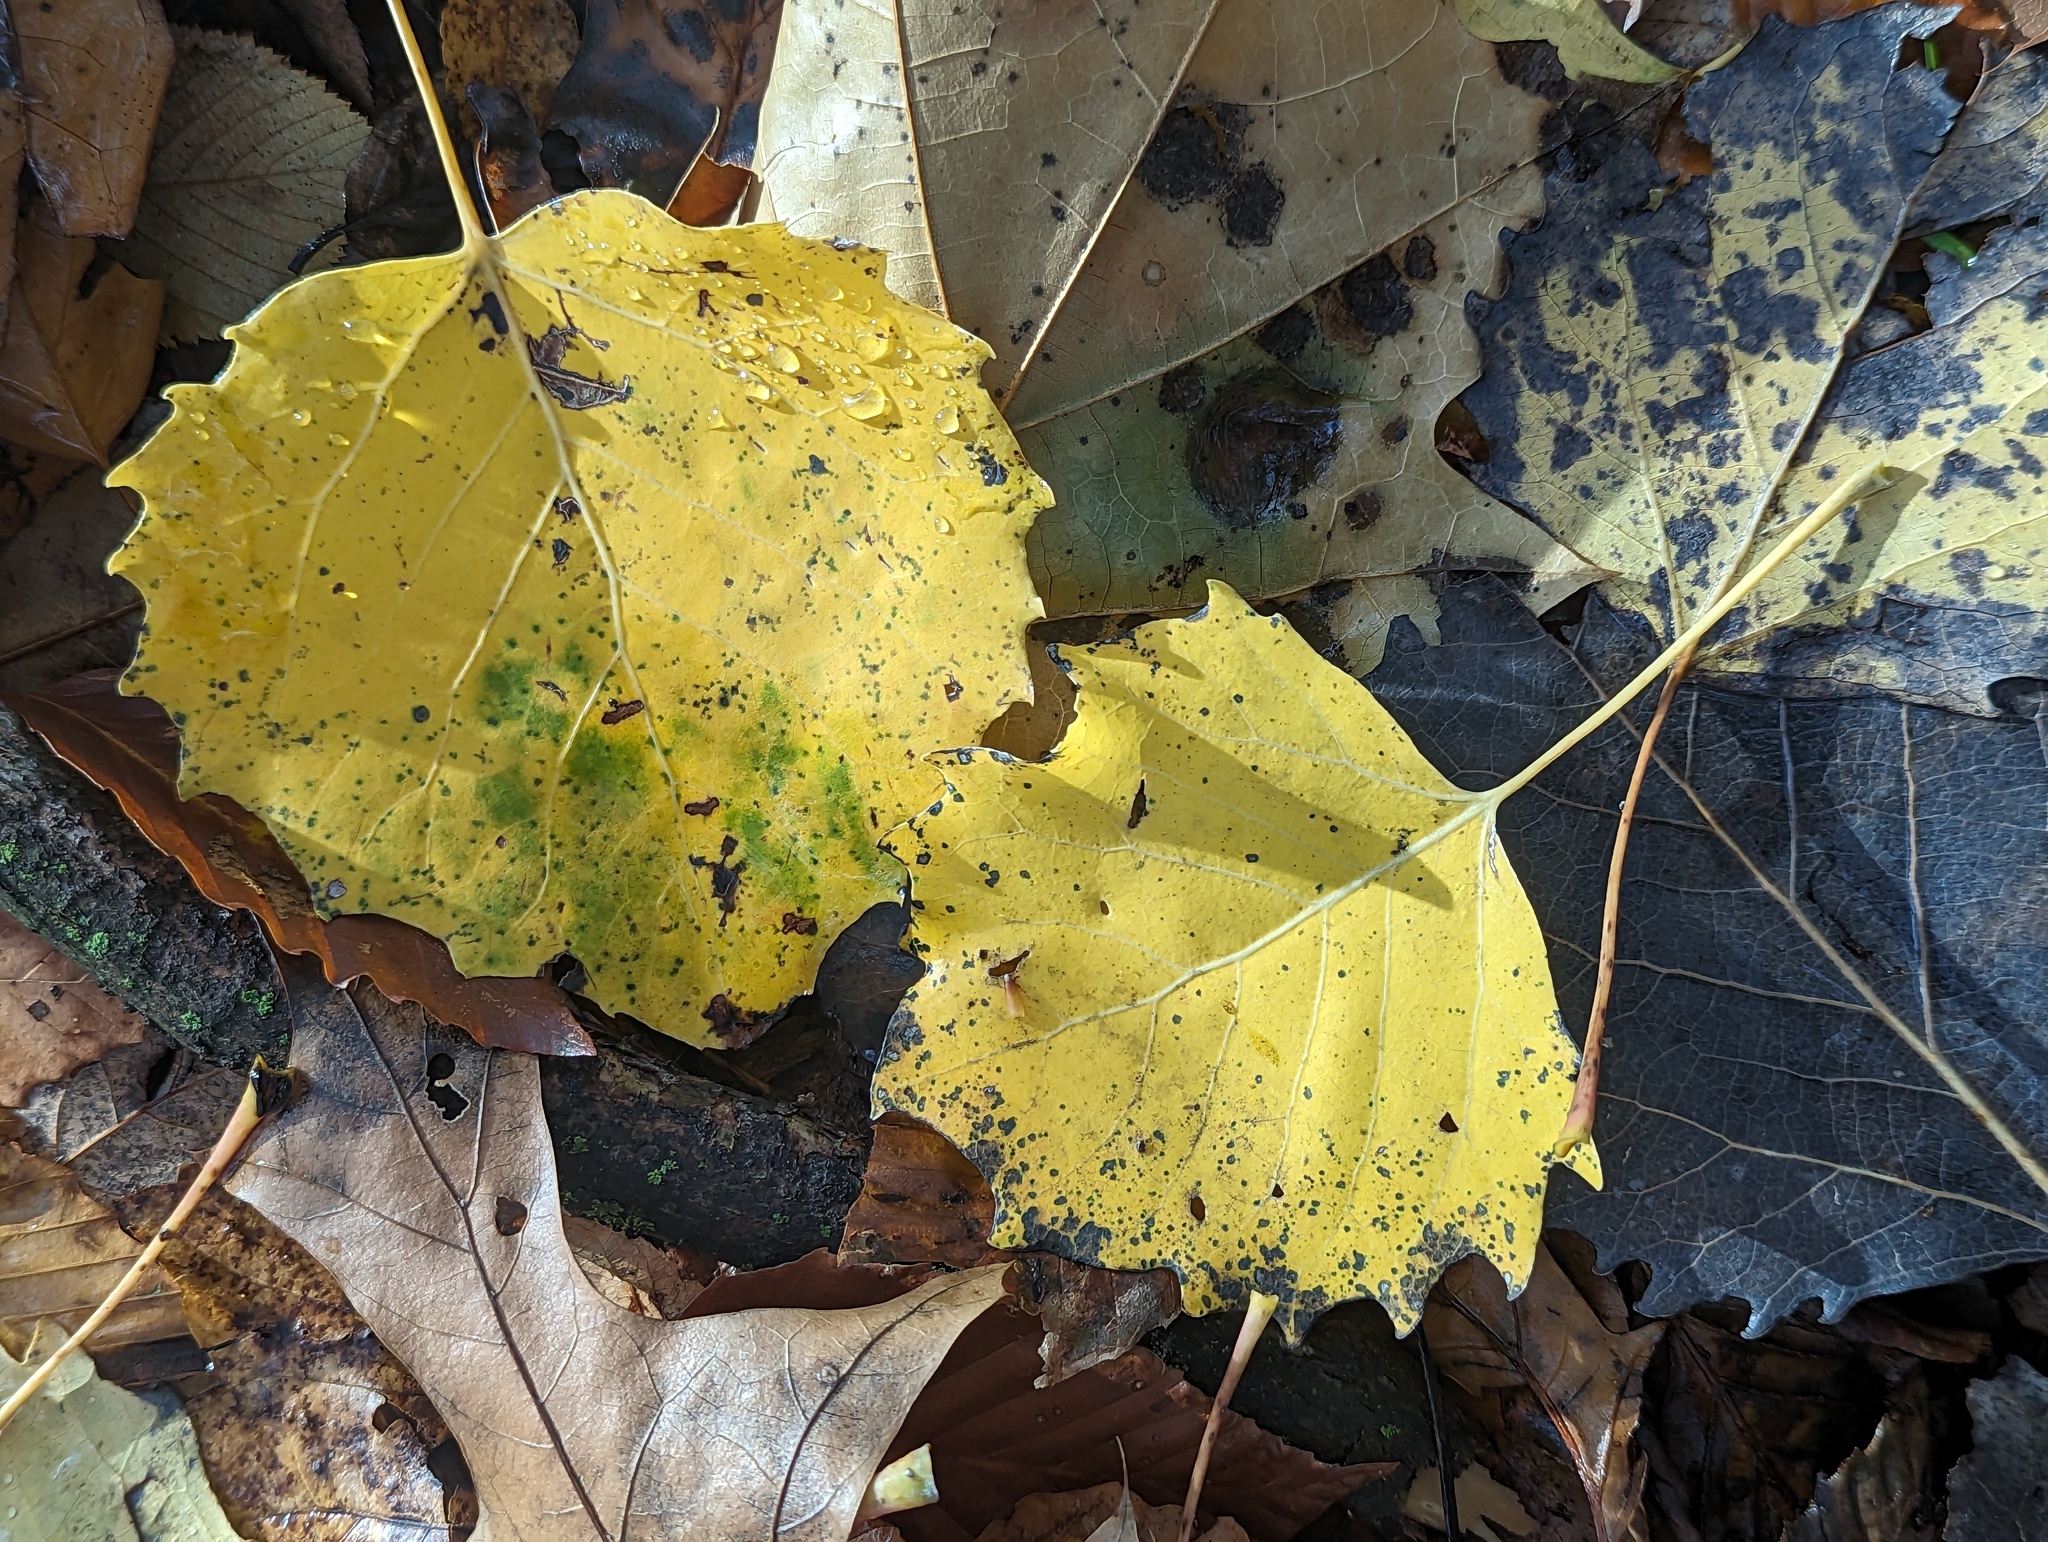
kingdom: Plantae
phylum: Tracheophyta
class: Magnoliopsida
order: Malpighiales
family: Salicaceae
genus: Populus
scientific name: Populus grandidentata
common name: Bigtooth aspen
